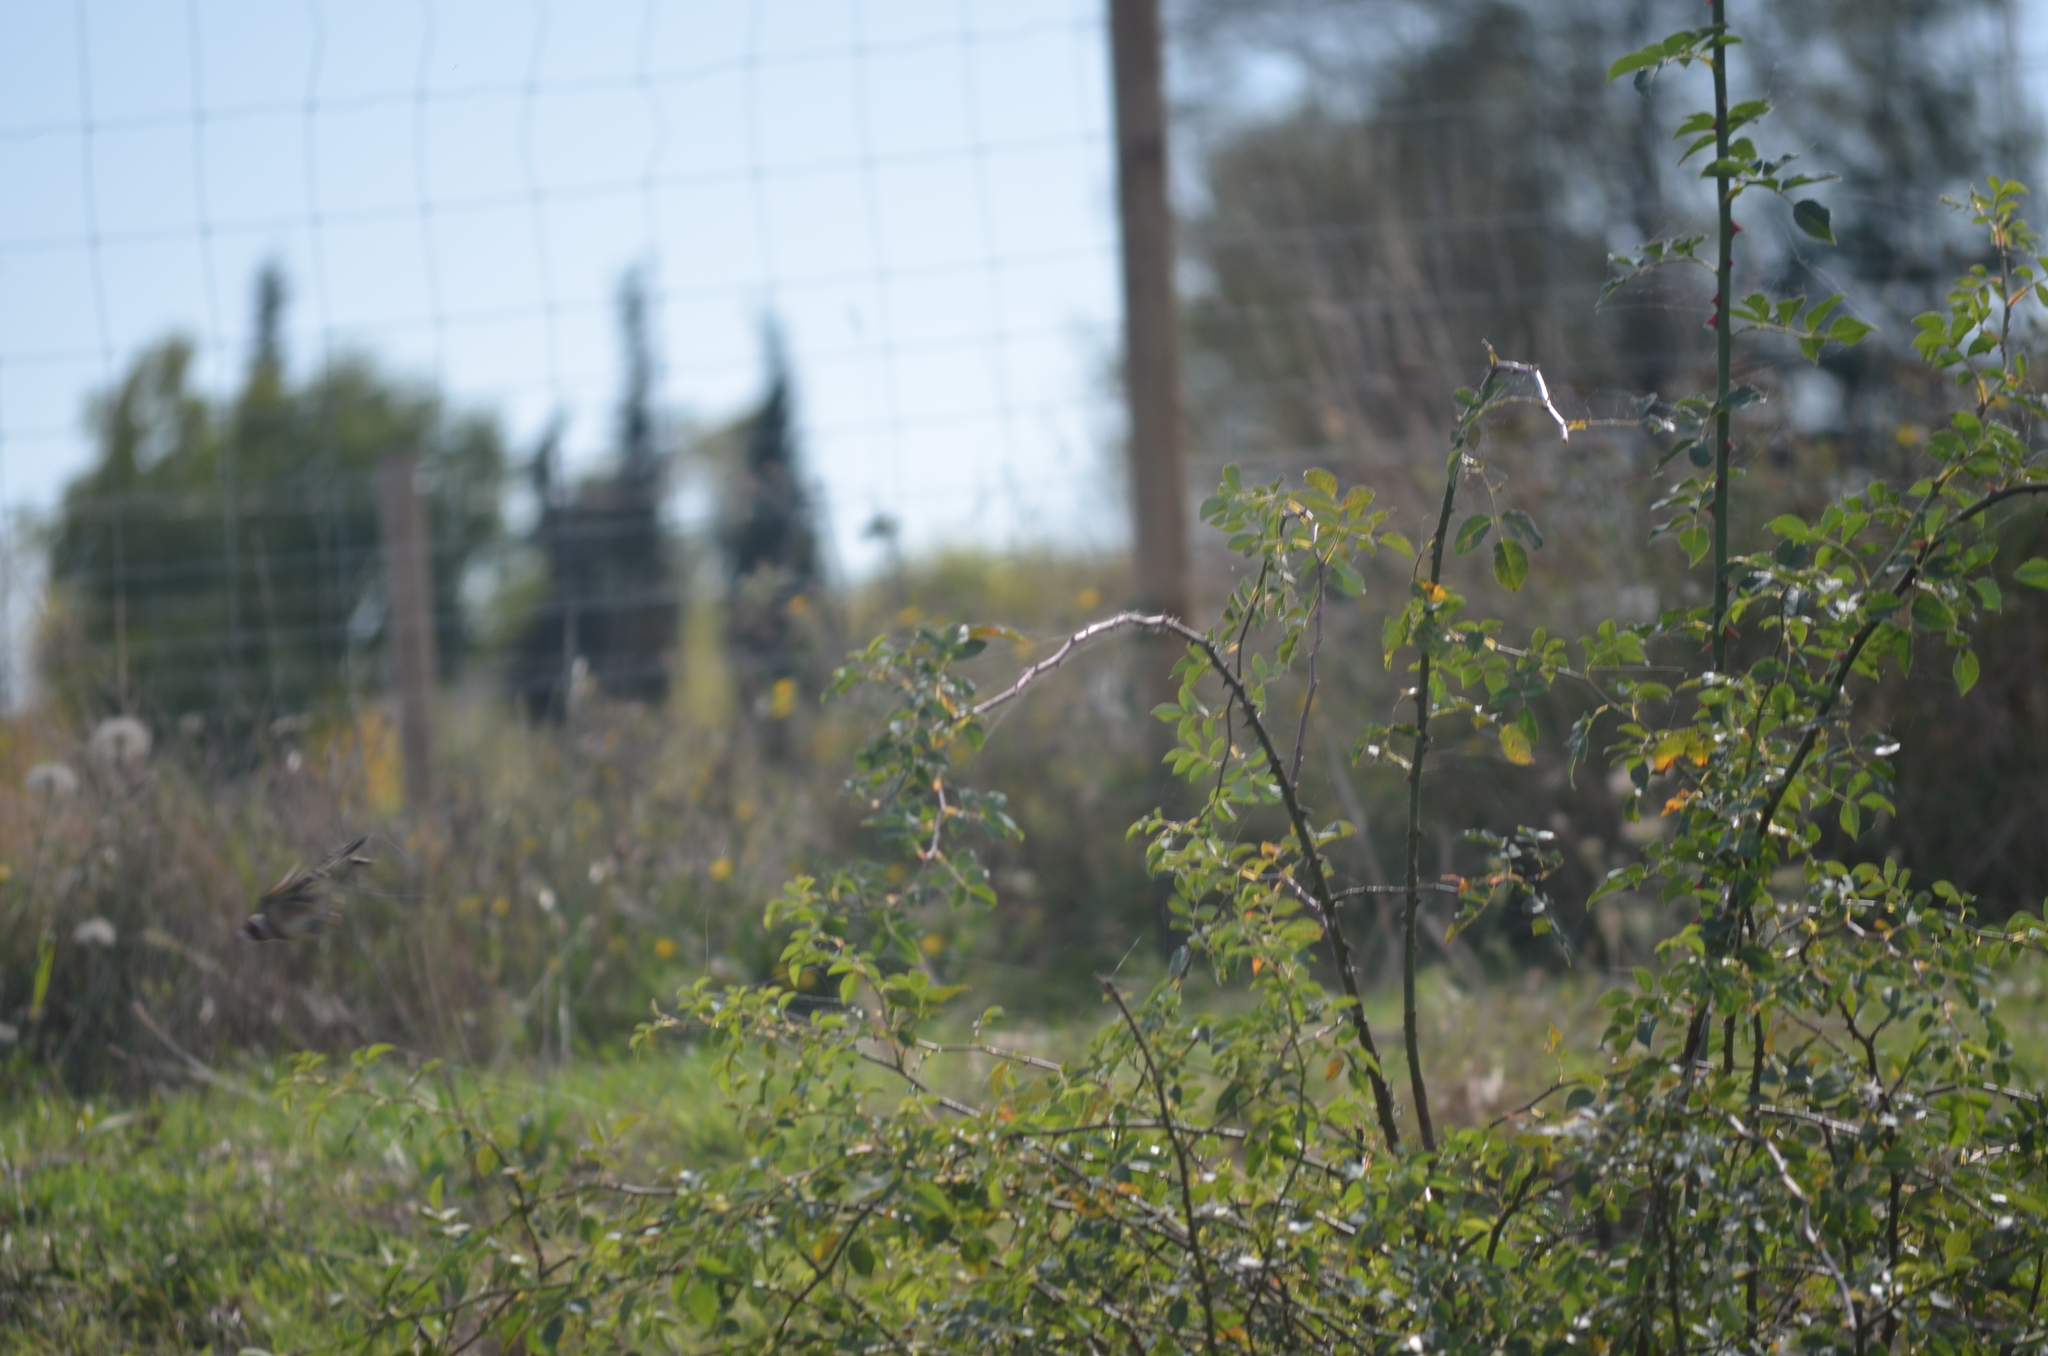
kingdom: Animalia
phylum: Chordata
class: Aves
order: Passeriformes
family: Fringillidae
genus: Carduelis
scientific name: Carduelis carduelis
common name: European goldfinch
